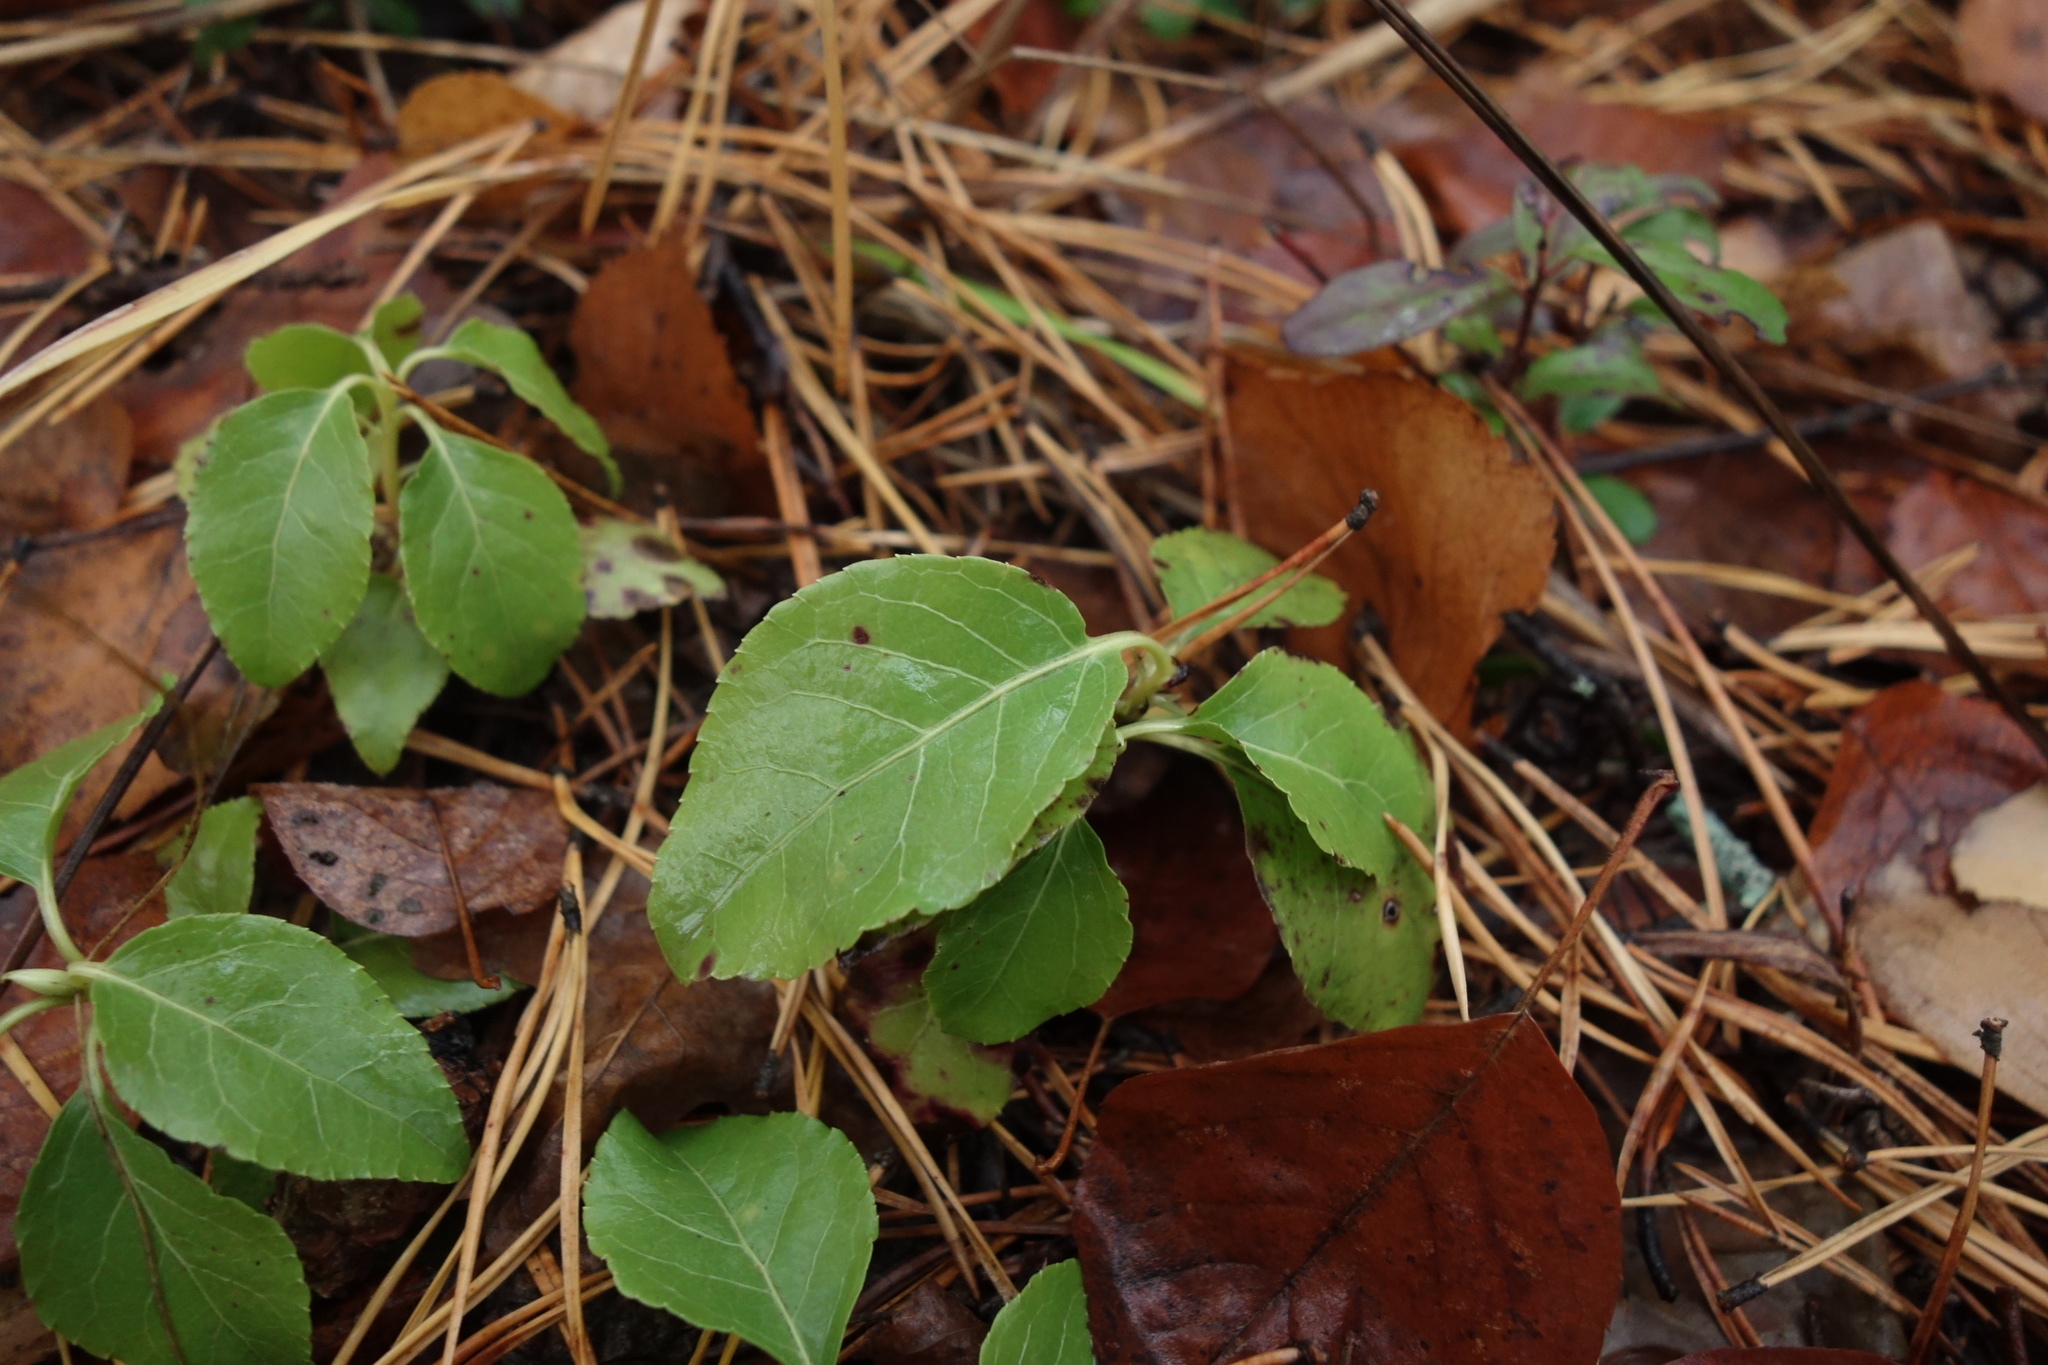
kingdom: Plantae
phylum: Tracheophyta
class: Magnoliopsida
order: Ericales
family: Ericaceae
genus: Orthilia
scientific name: Orthilia secunda
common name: One-sided orthilia
